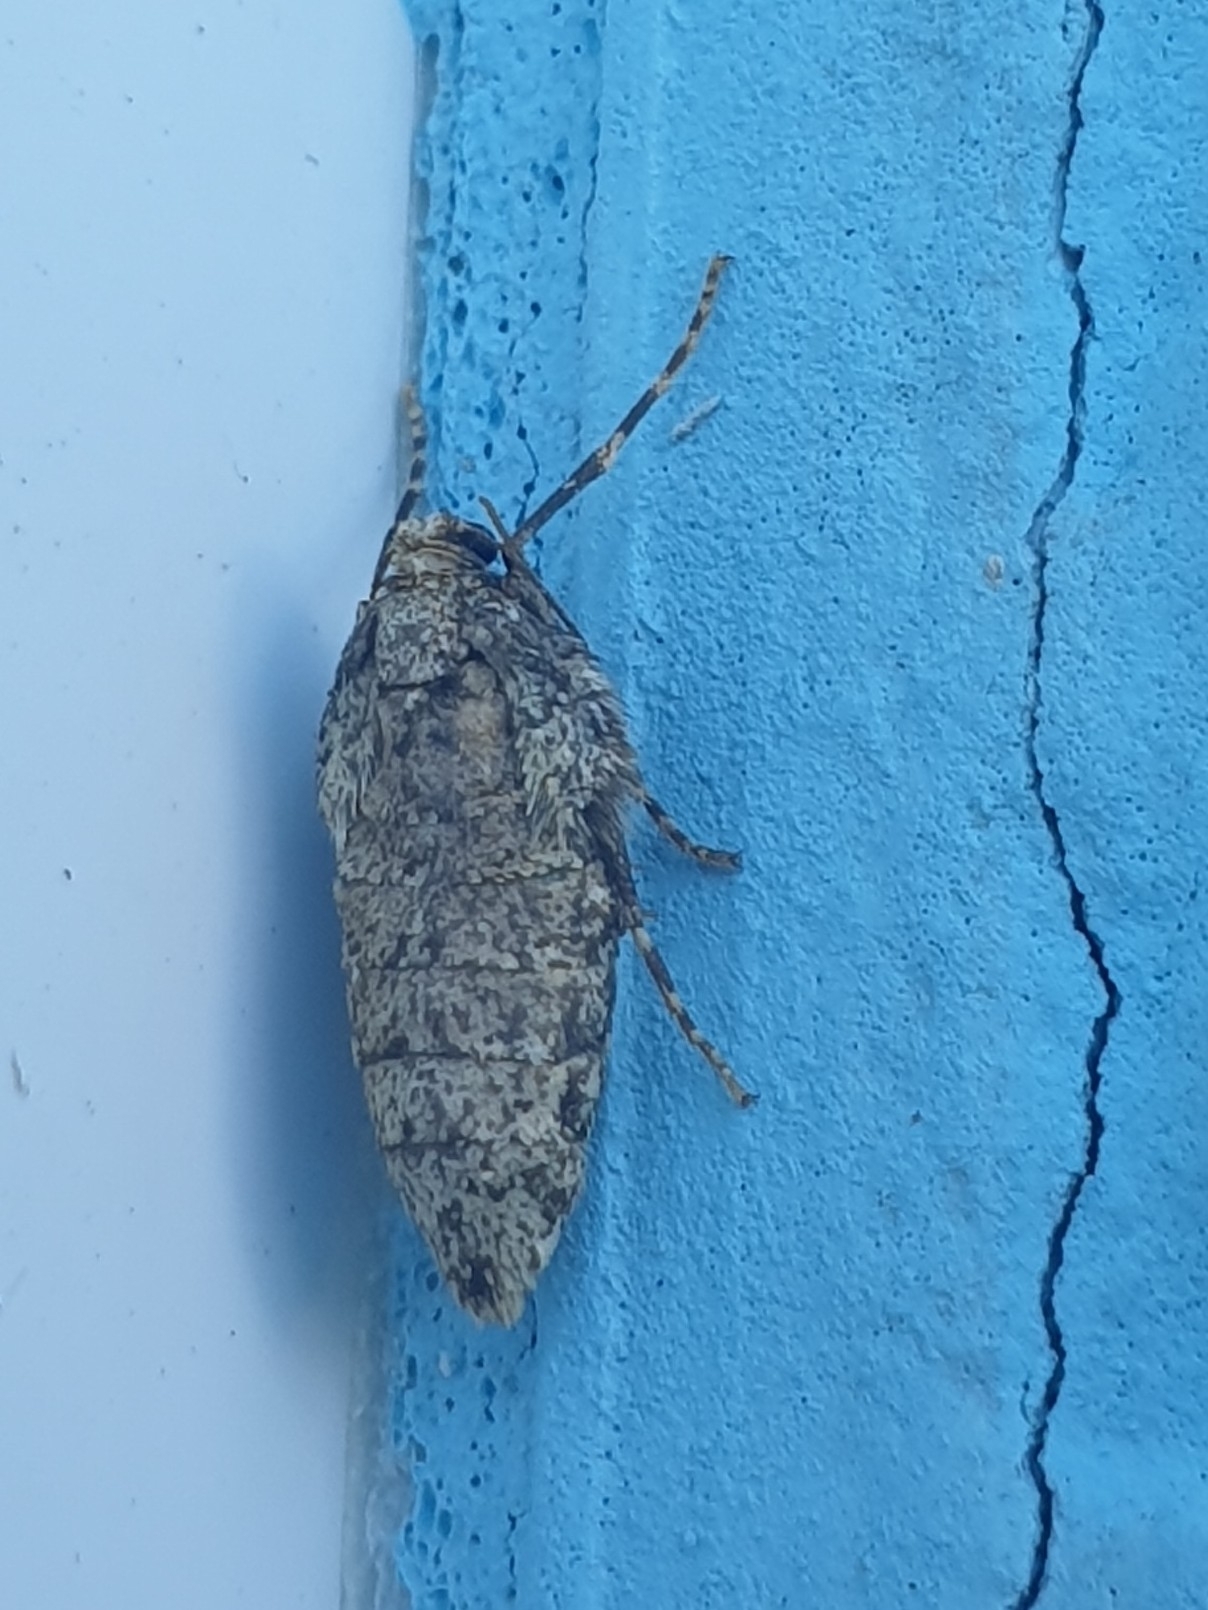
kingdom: Animalia
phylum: Arthropoda
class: Insecta
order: Lepidoptera
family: Geometridae
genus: Operophtera
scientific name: Operophtera brumata
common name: Winter moth
